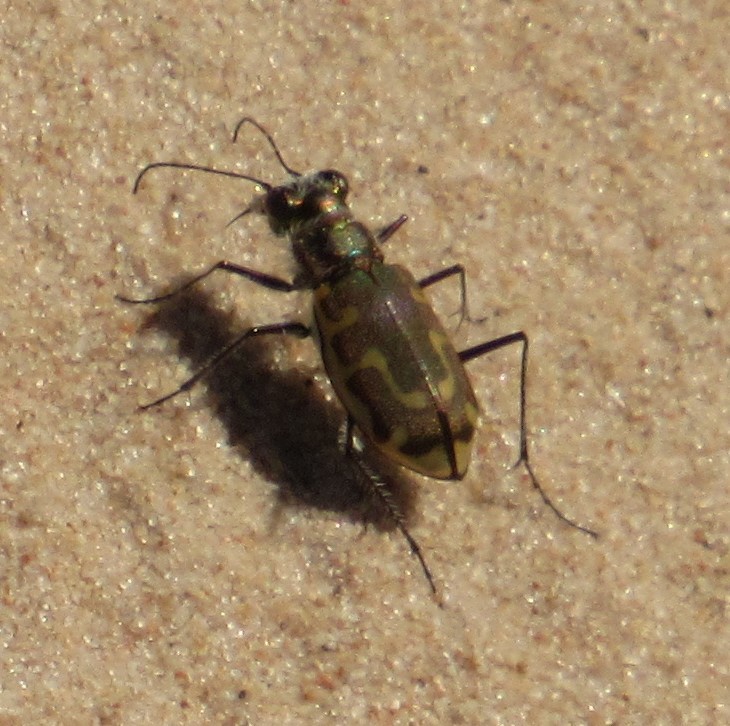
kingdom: Animalia
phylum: Arthropoda
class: Insecta
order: Coleoptera
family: Carabidae
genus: Cicindela
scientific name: Cicindela hirticollis
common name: Hairy-necked tiger beetle
